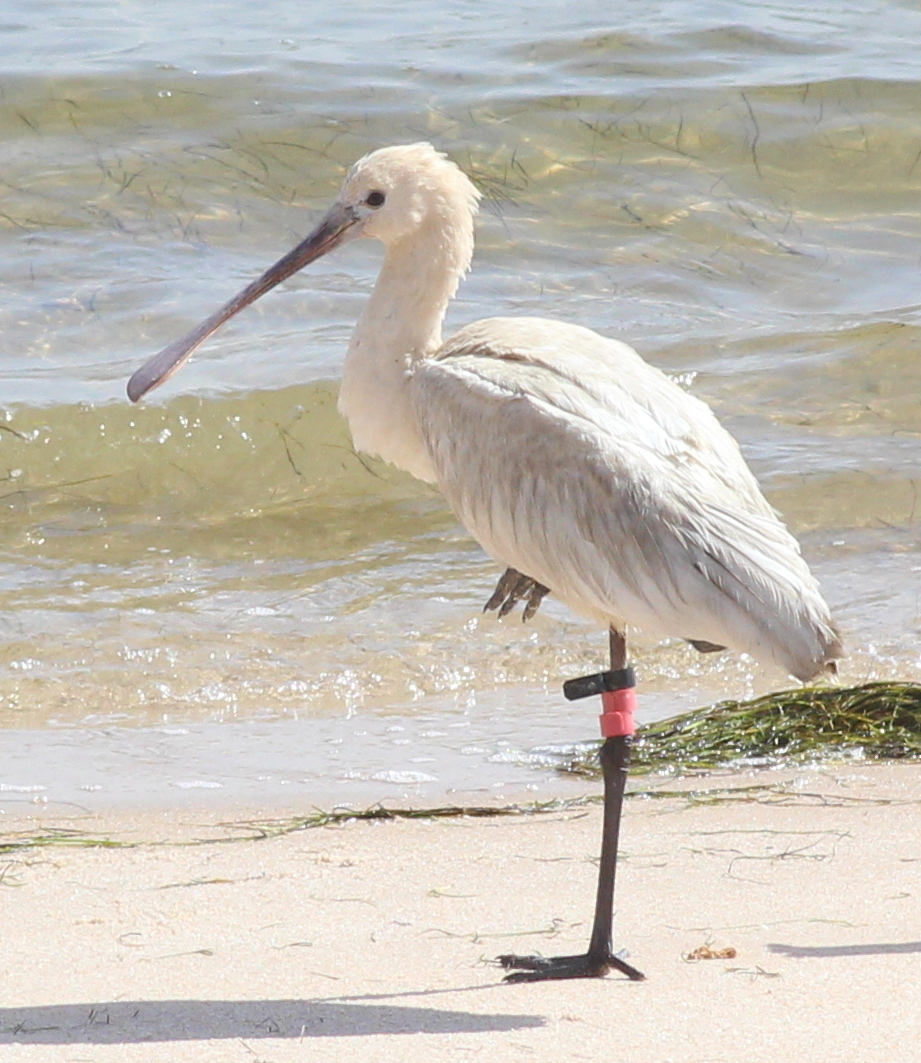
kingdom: Animalia
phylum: Chordata
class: Aves
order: Pelecaniformes
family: Threskiornithidae
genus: Platalea
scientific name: Platalea leucorodia
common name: Eurasian spoonbill
